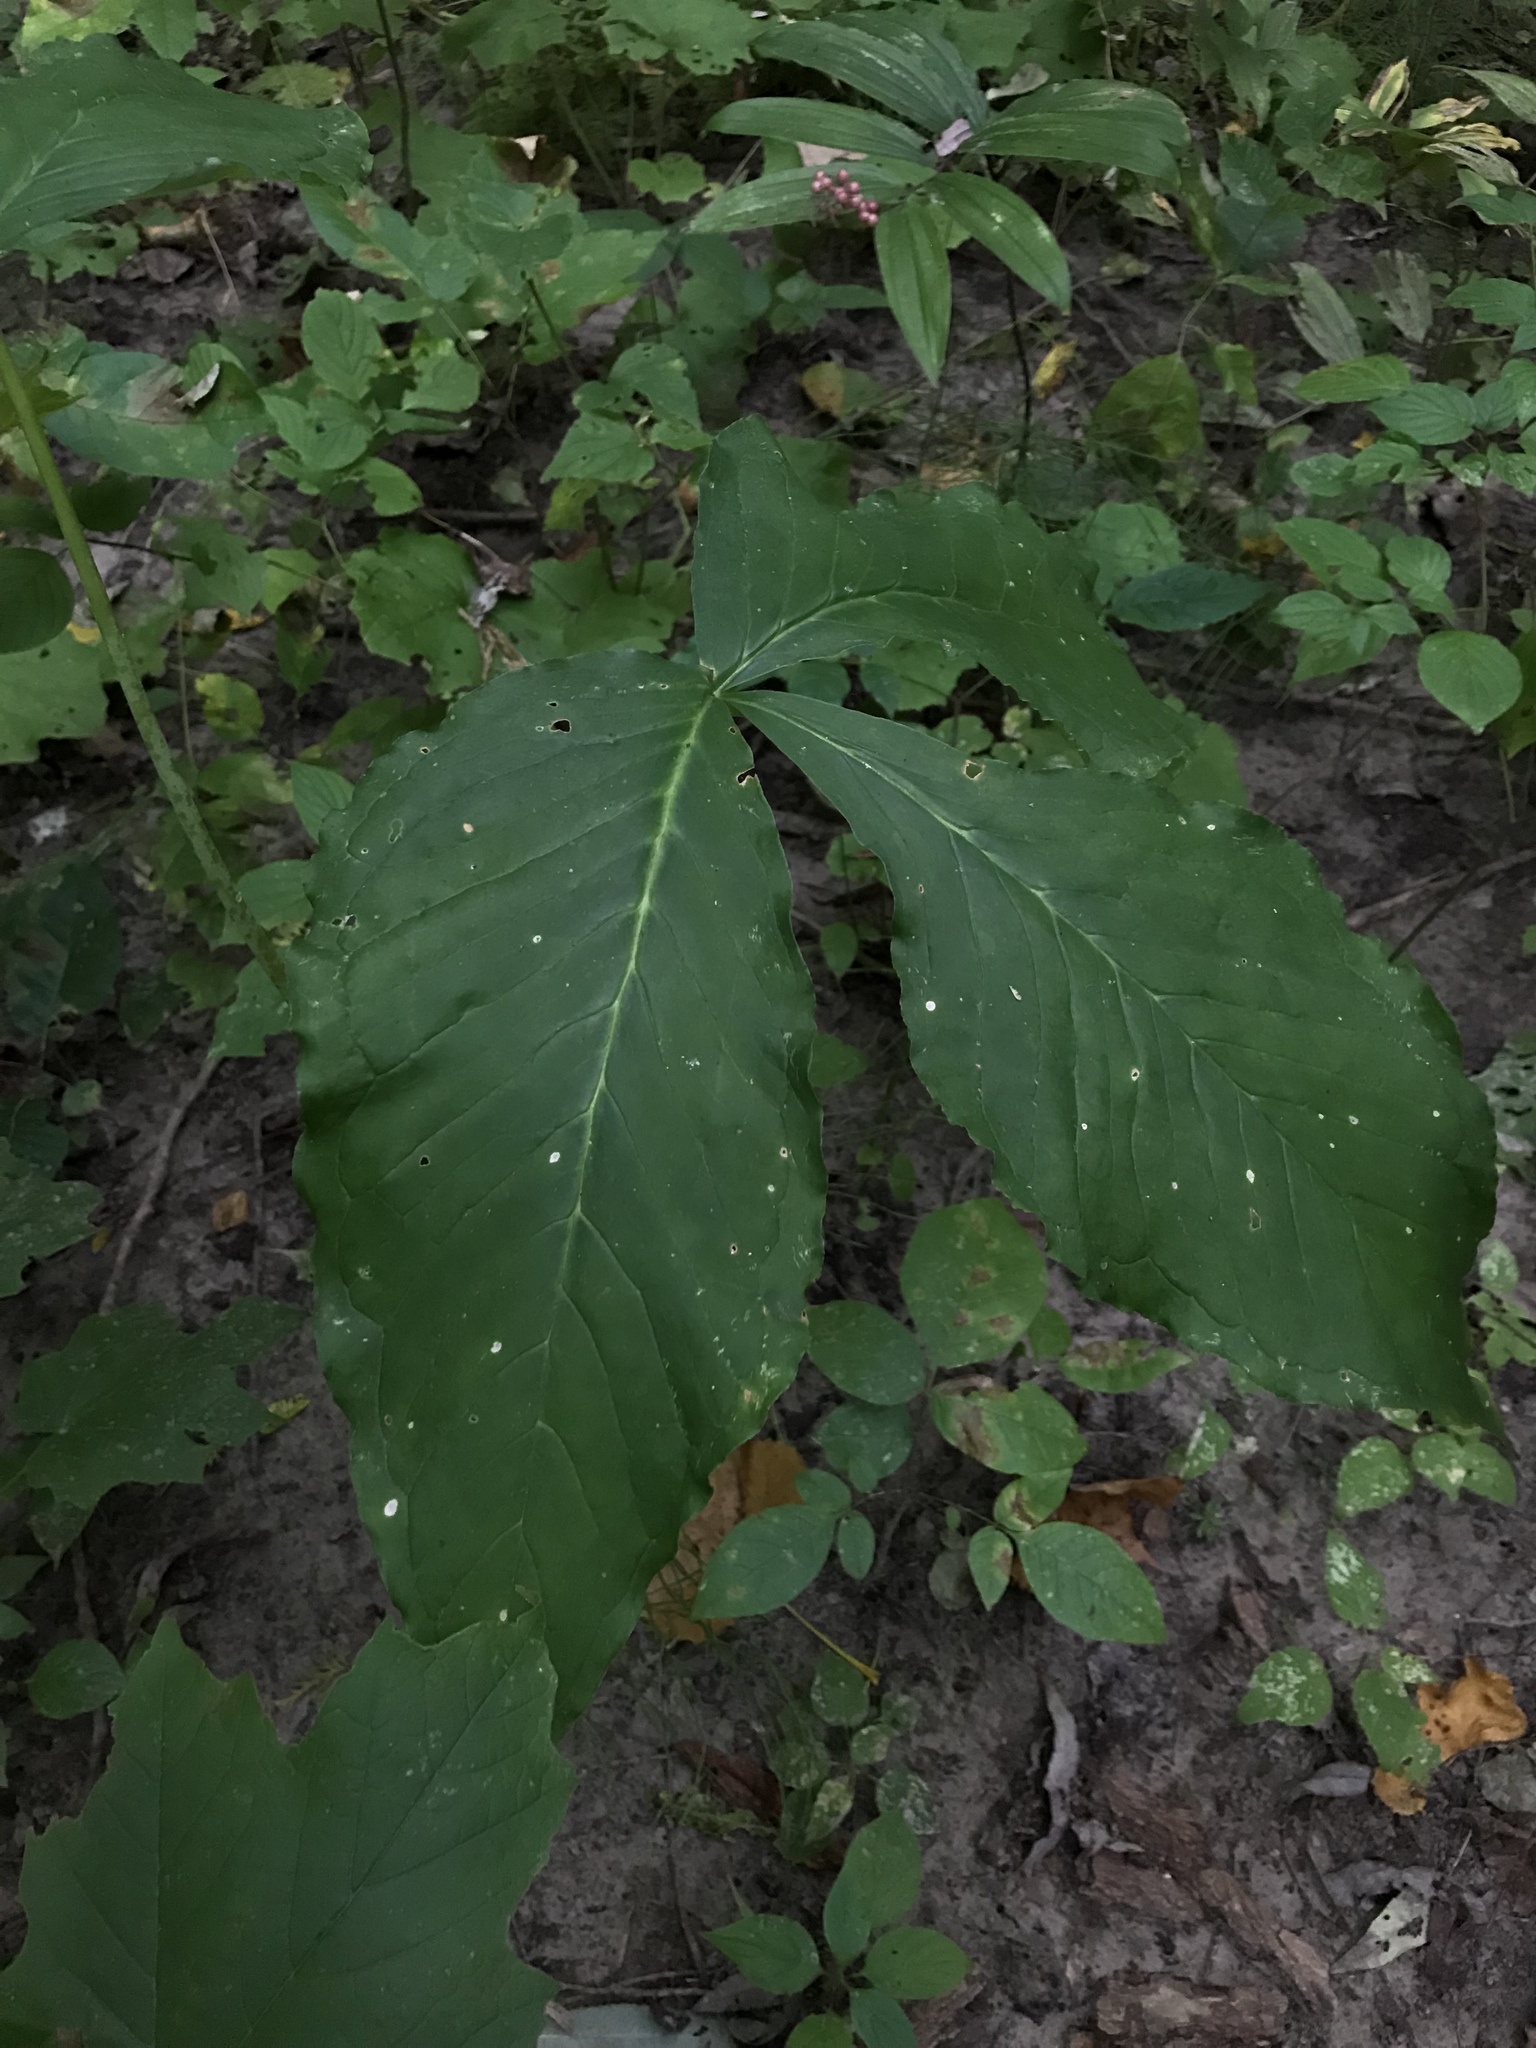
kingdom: Plantae
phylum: Tracheophyta
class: Liliopsida
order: Alismatales
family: Araceae
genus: Arisaema
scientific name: Arisaema triphyllum
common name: Jack-in-the-pulpit
